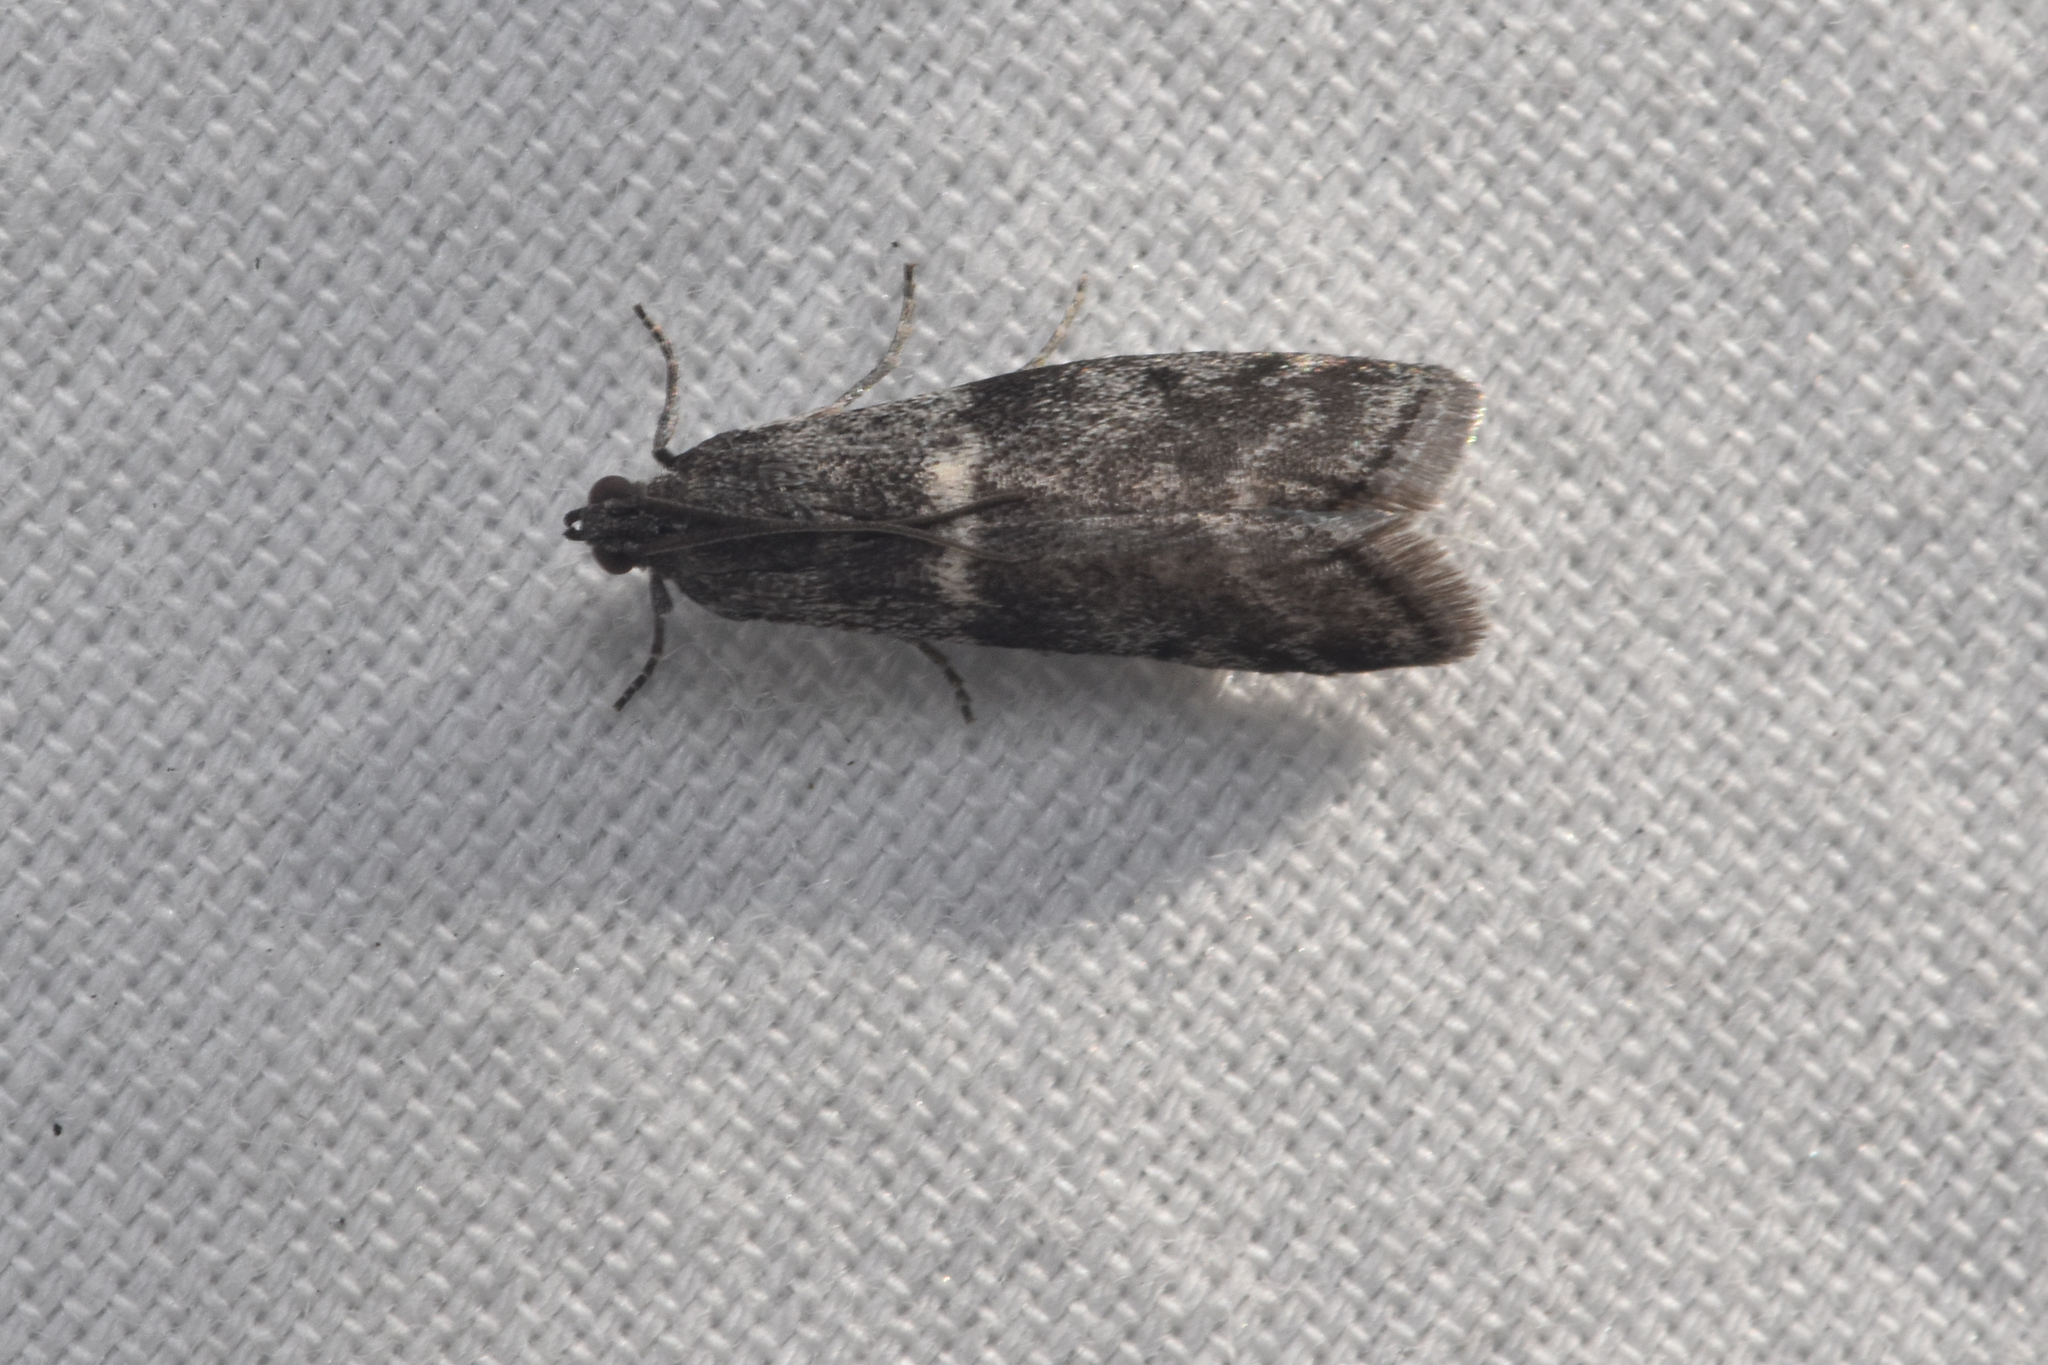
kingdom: Animalia
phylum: Arthropoda
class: Insecta
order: Lepidoptera
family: Pyralidae
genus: Acrobasis
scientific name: Acrobasis tricolorella
